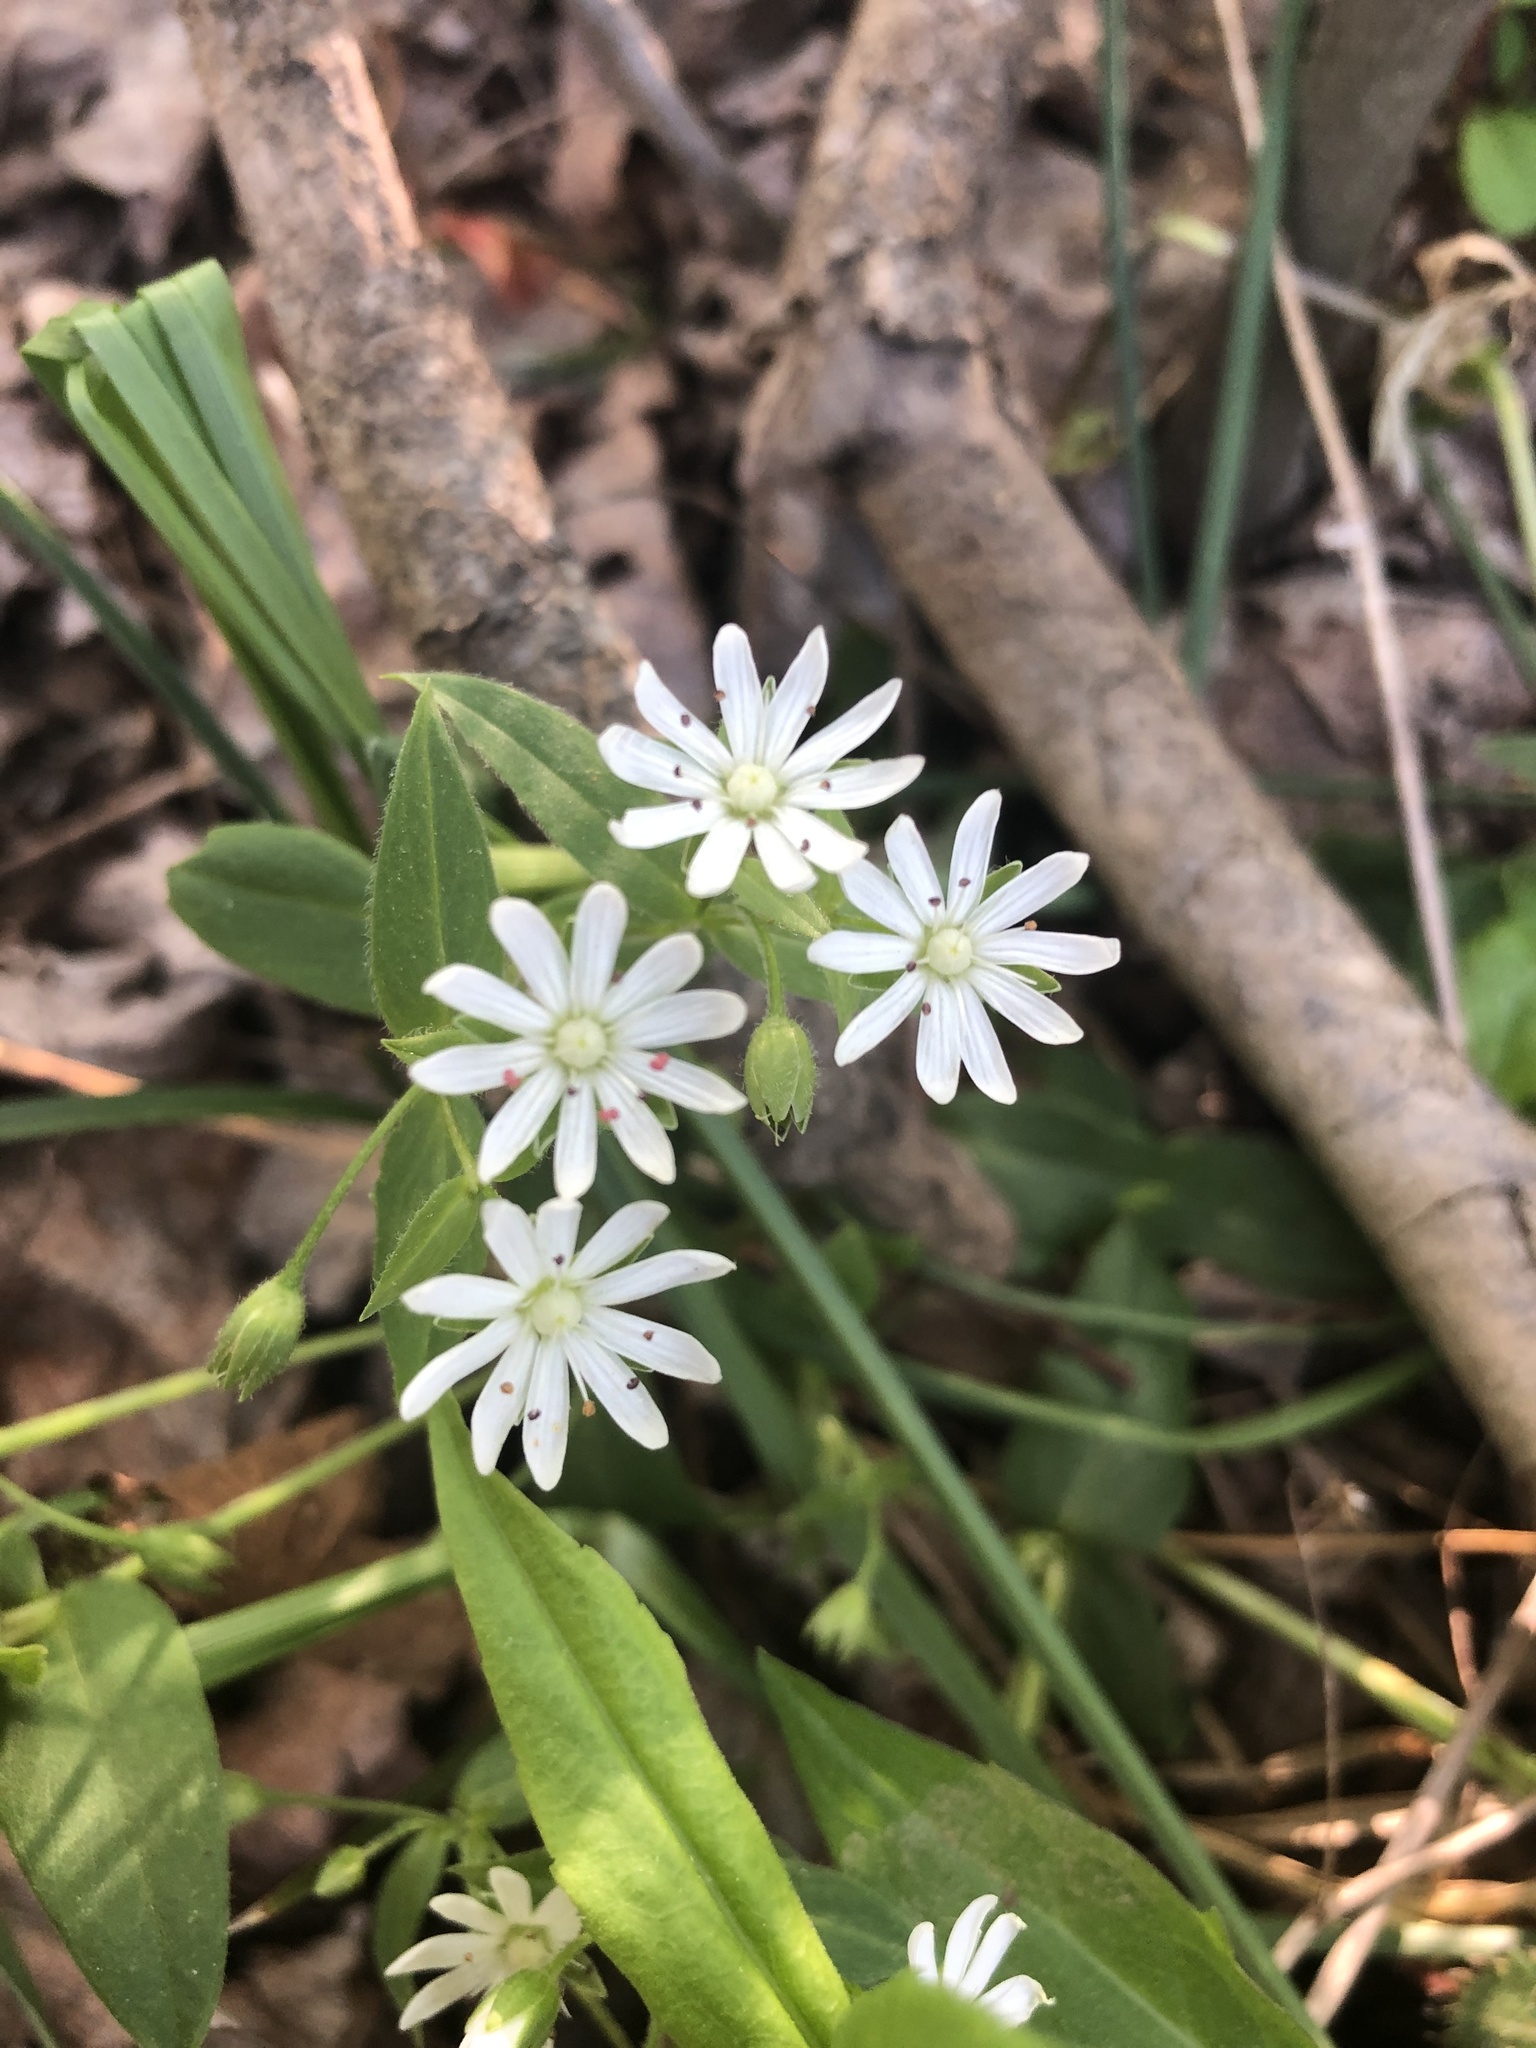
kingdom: Plantae
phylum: Tracheophyta
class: Magnoliopsida
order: Caryophyllales
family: Caryophyllaceae
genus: Stellaria
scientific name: Stellaria pubera
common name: Star chickweed
